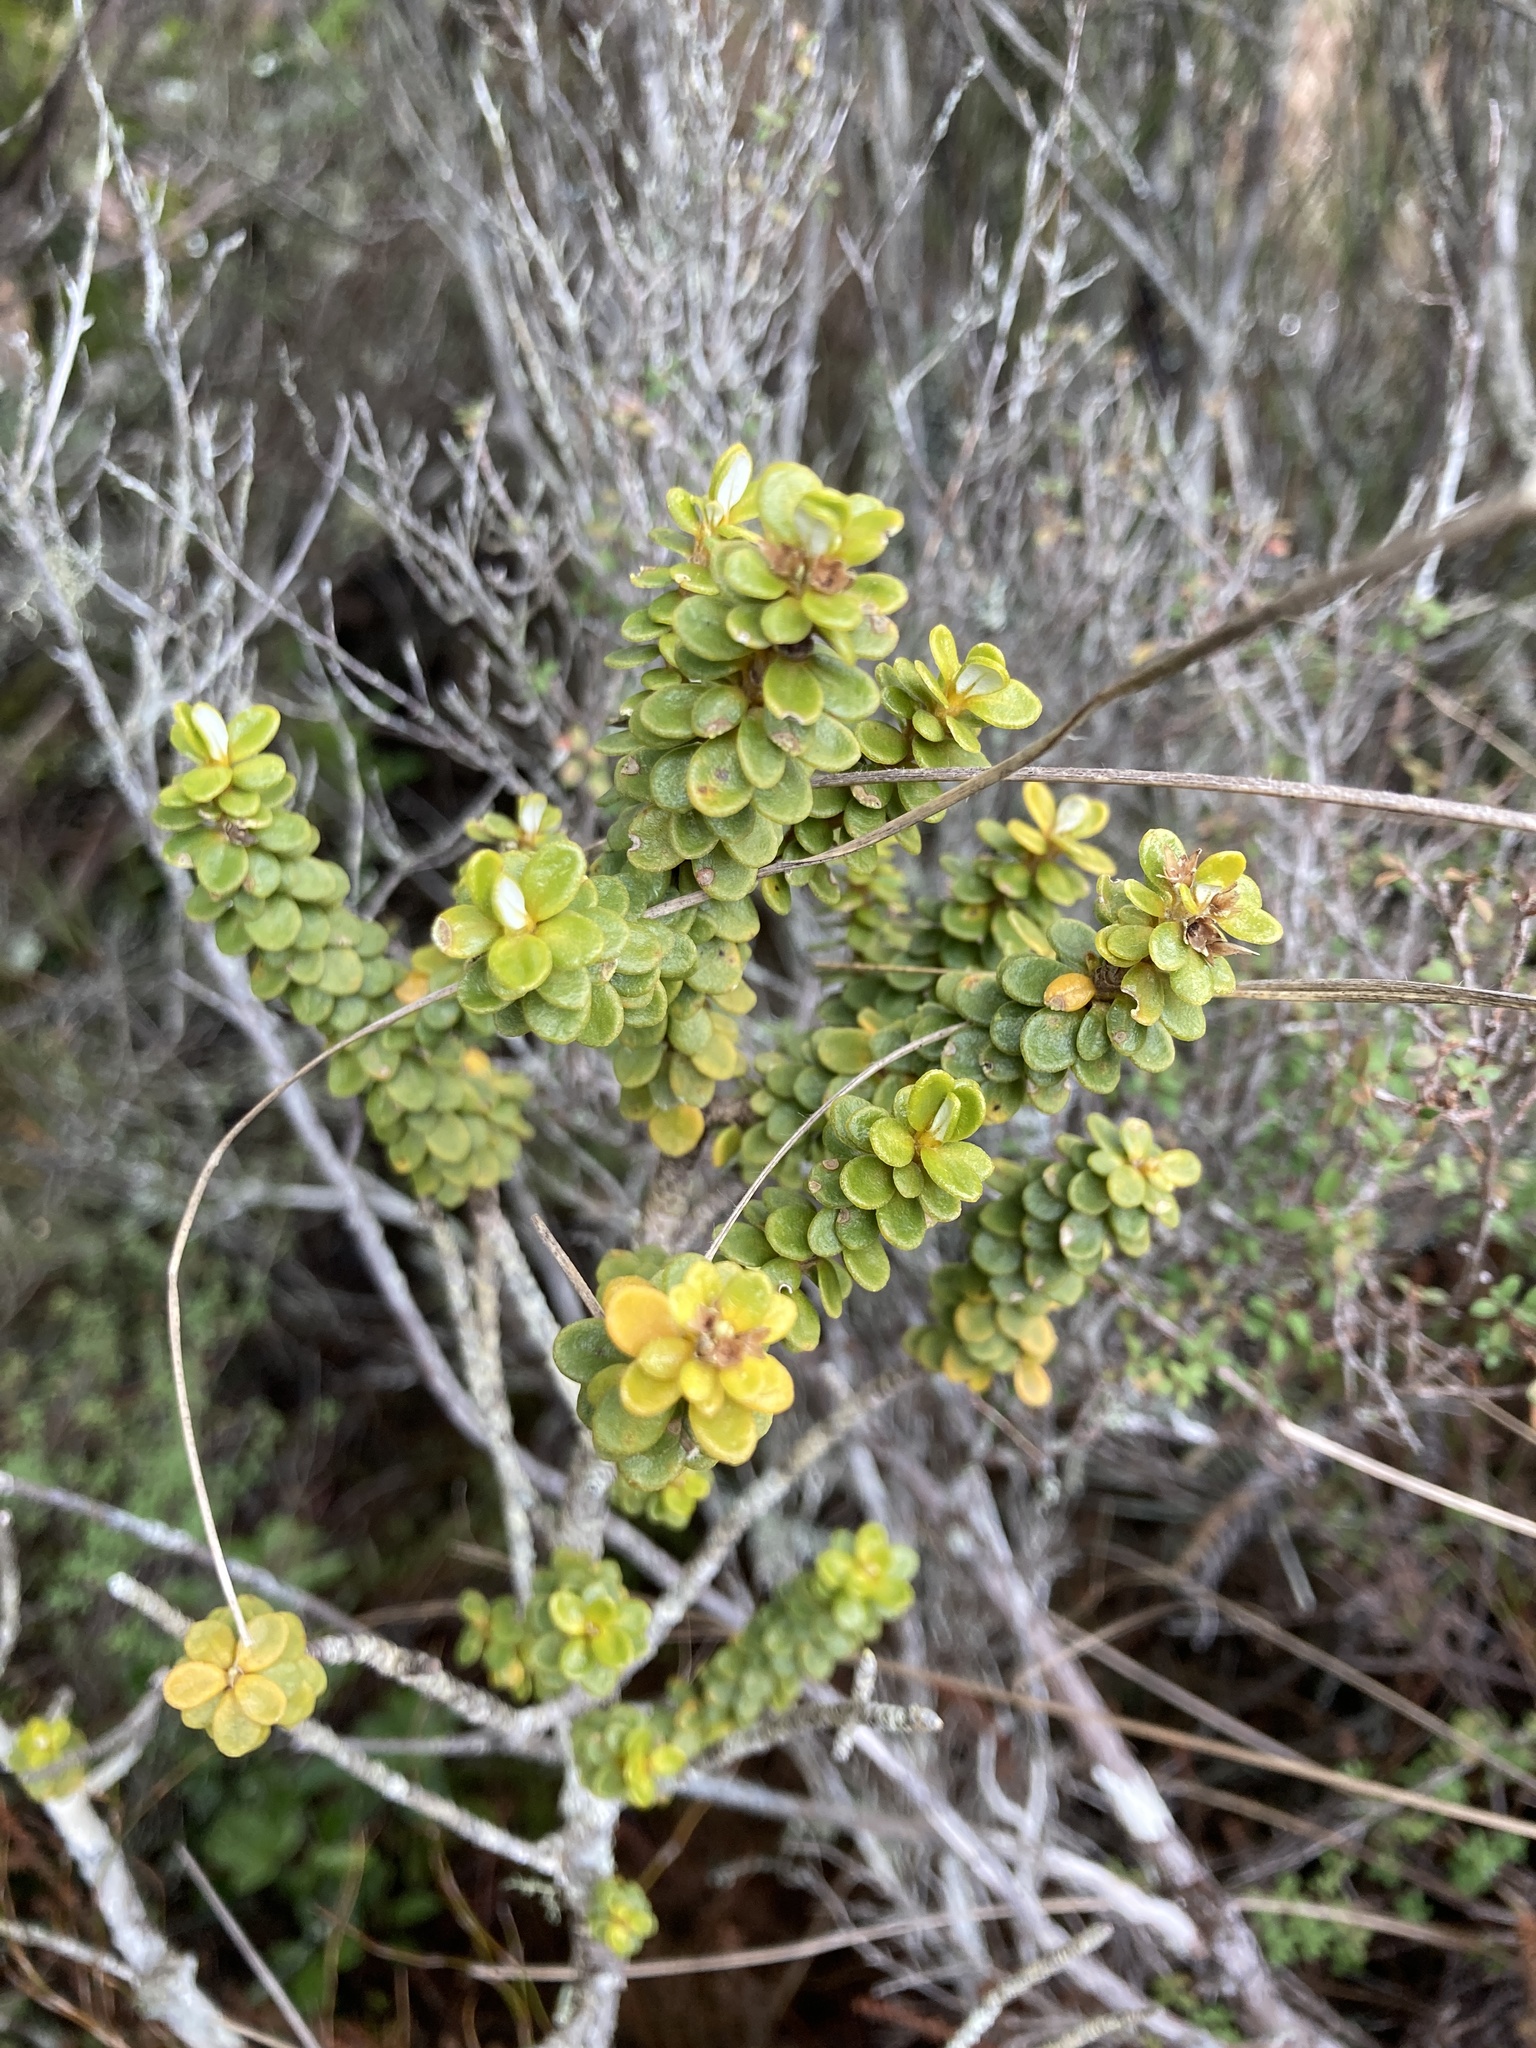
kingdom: Plantae
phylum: Tracheophyta
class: Magnoliopsida
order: Asterales
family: Asteraceae
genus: Olearia
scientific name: Olearia nummularifolia
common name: Sticky daisybush
